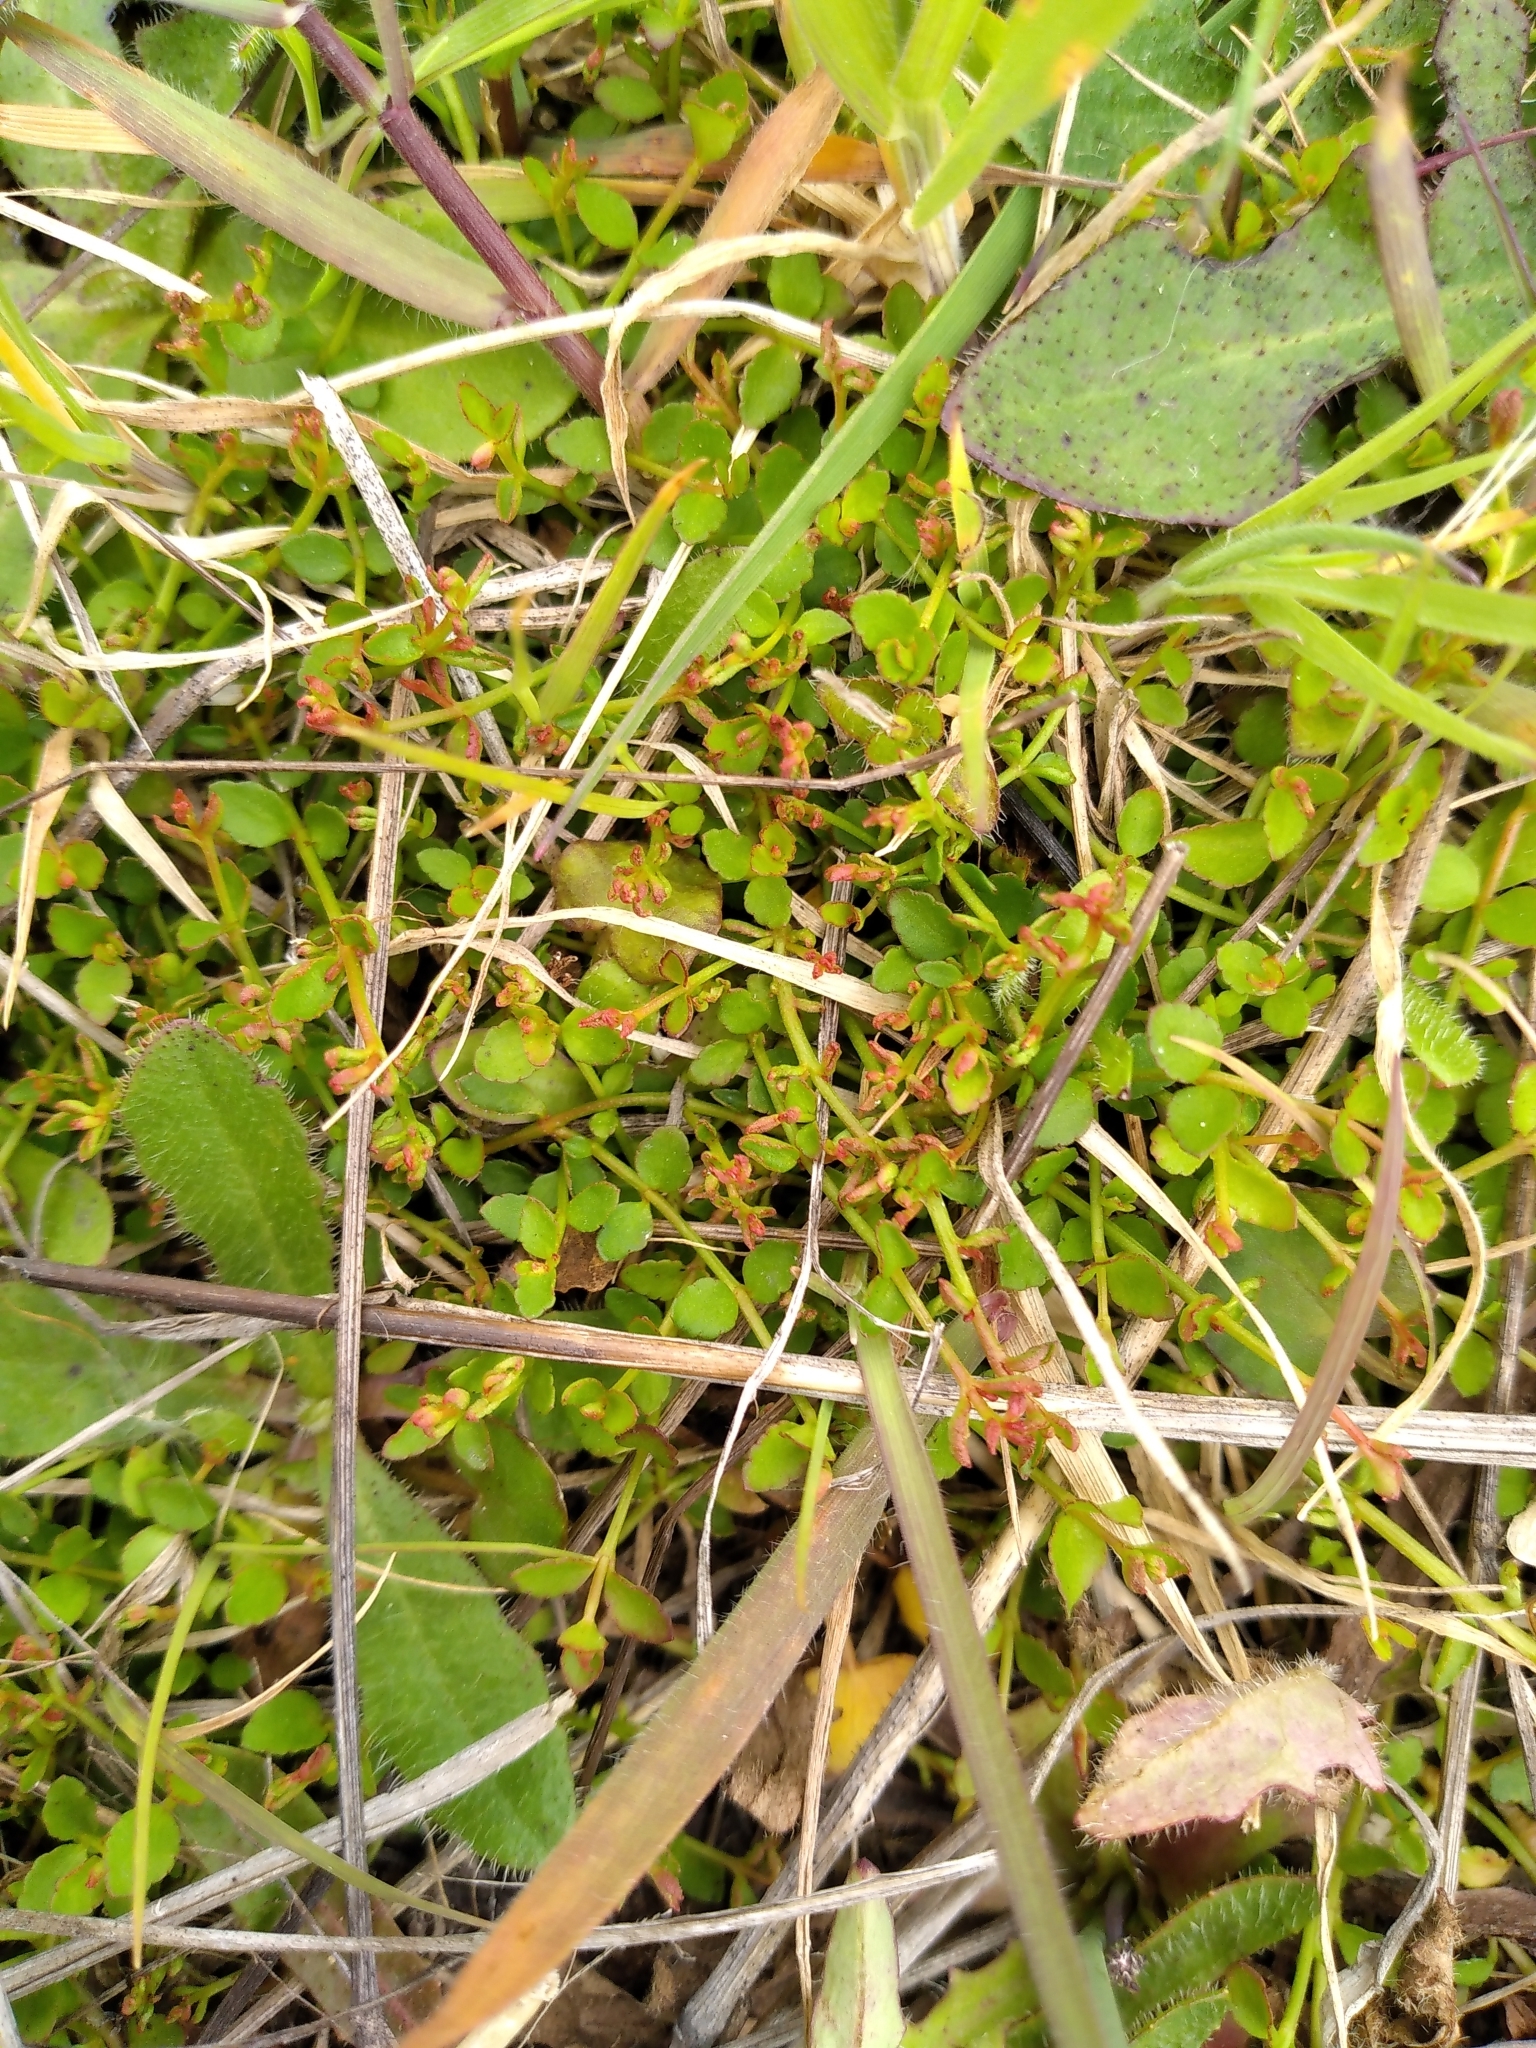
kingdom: Plantae
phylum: Tracheophyta
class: Magnoliopsida
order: Saxifragales
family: Haloragaceae
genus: Gonocarpus
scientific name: Gonocarpus micranthus
